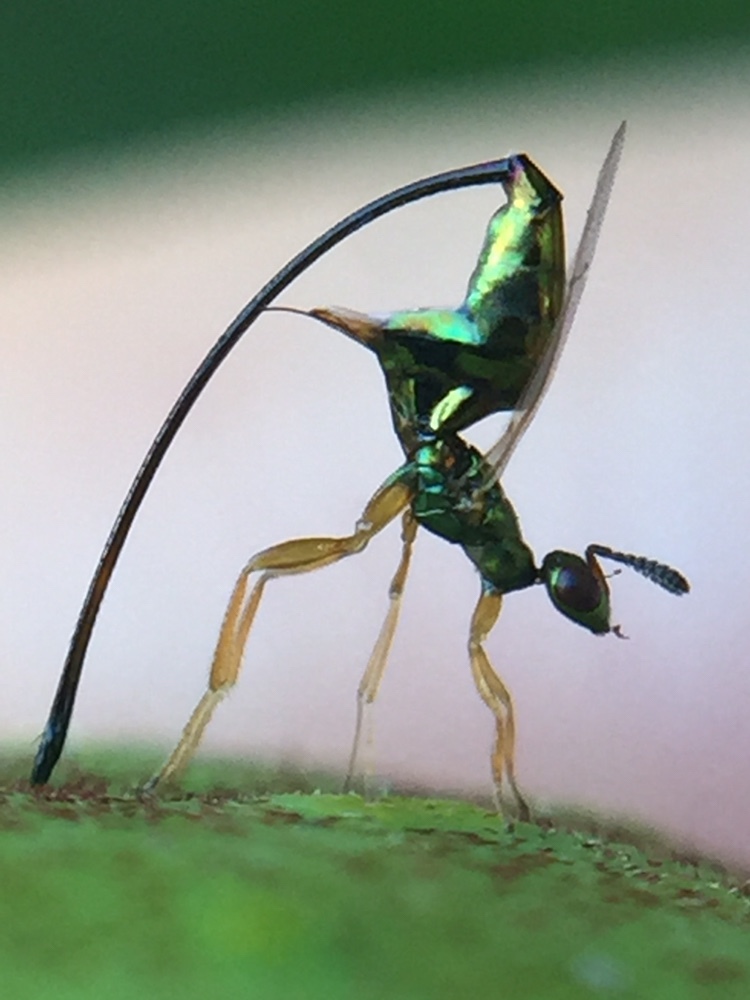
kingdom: Animalia
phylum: Arthropoda
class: Insecta
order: Hymenoptera
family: Agaonidae
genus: Sycoscapter
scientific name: Sycoscapter australis
